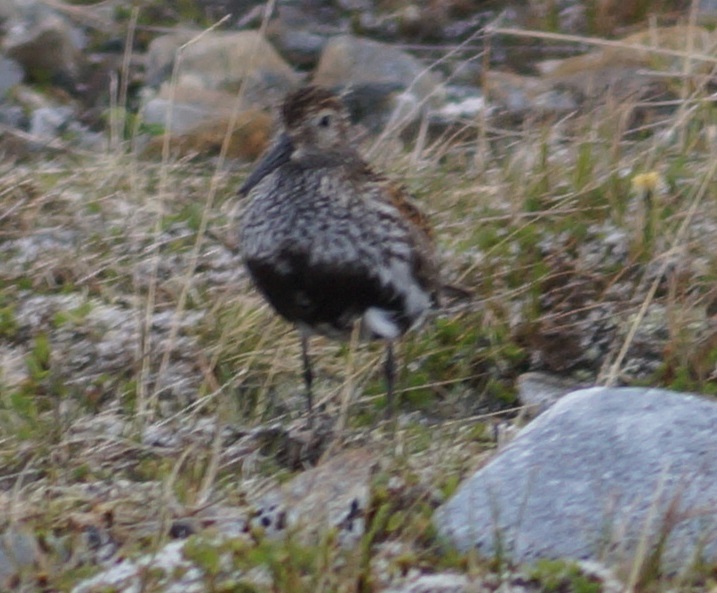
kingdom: Animalia
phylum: Chordata
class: Aves
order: Charadriiformes
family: Scolopacidae
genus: Calidris
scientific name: Calidris alpina
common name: Dunlin
